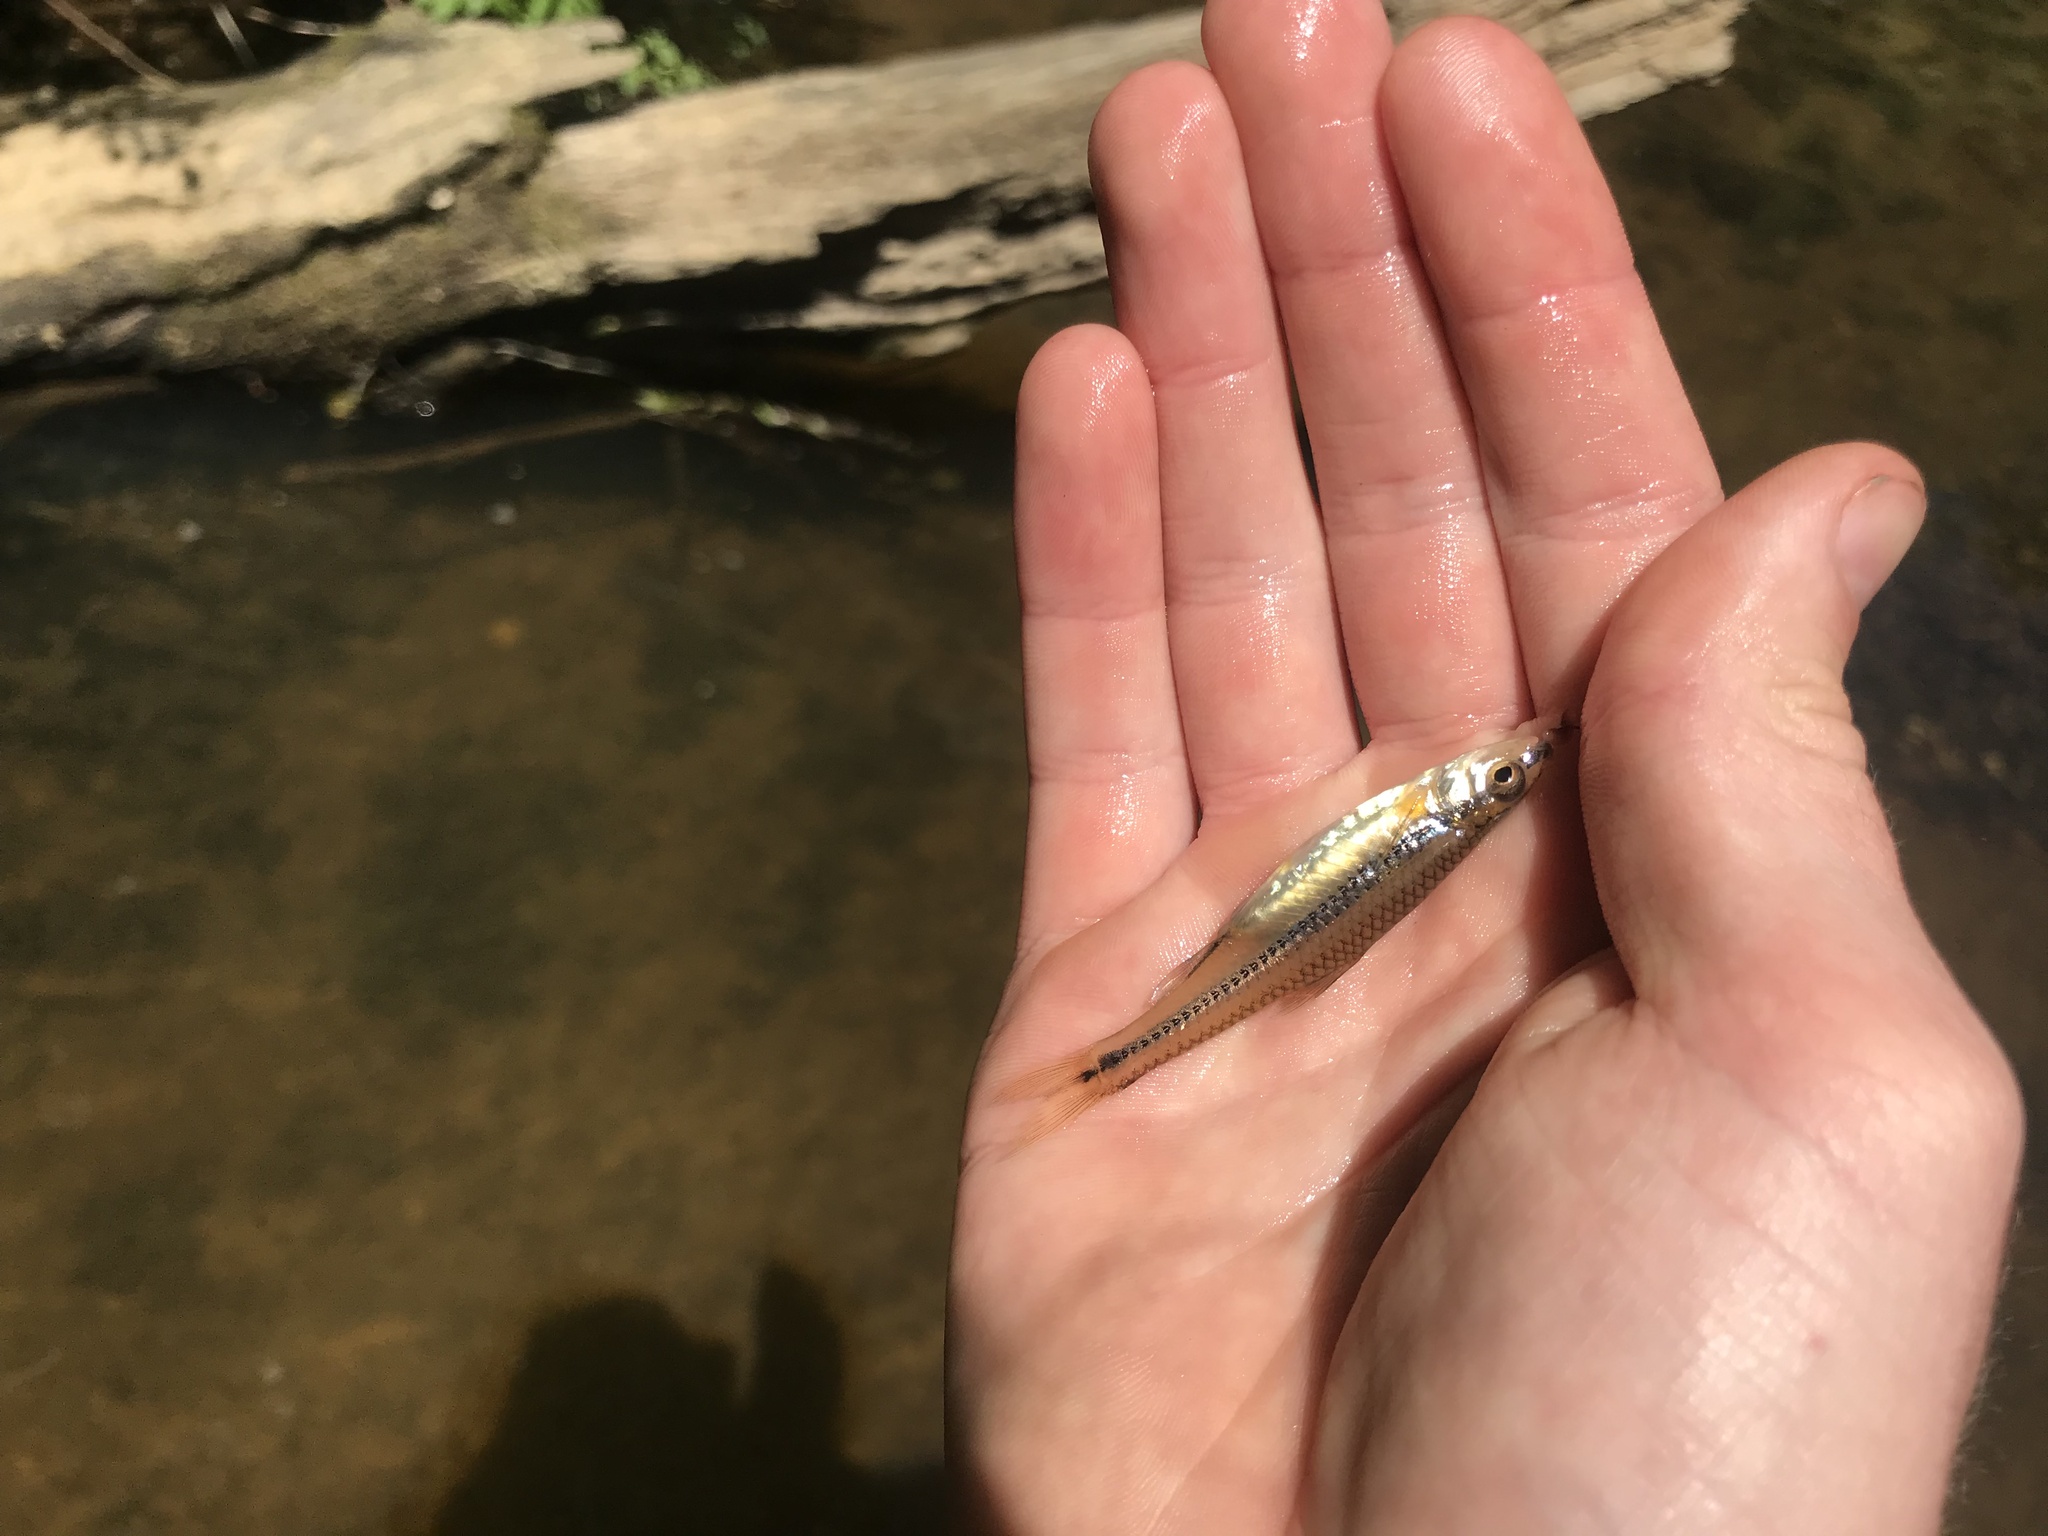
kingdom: Animalia
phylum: Chordata
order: Cypriniformes
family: Cyprinidae
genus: Notropis
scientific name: Notropis
